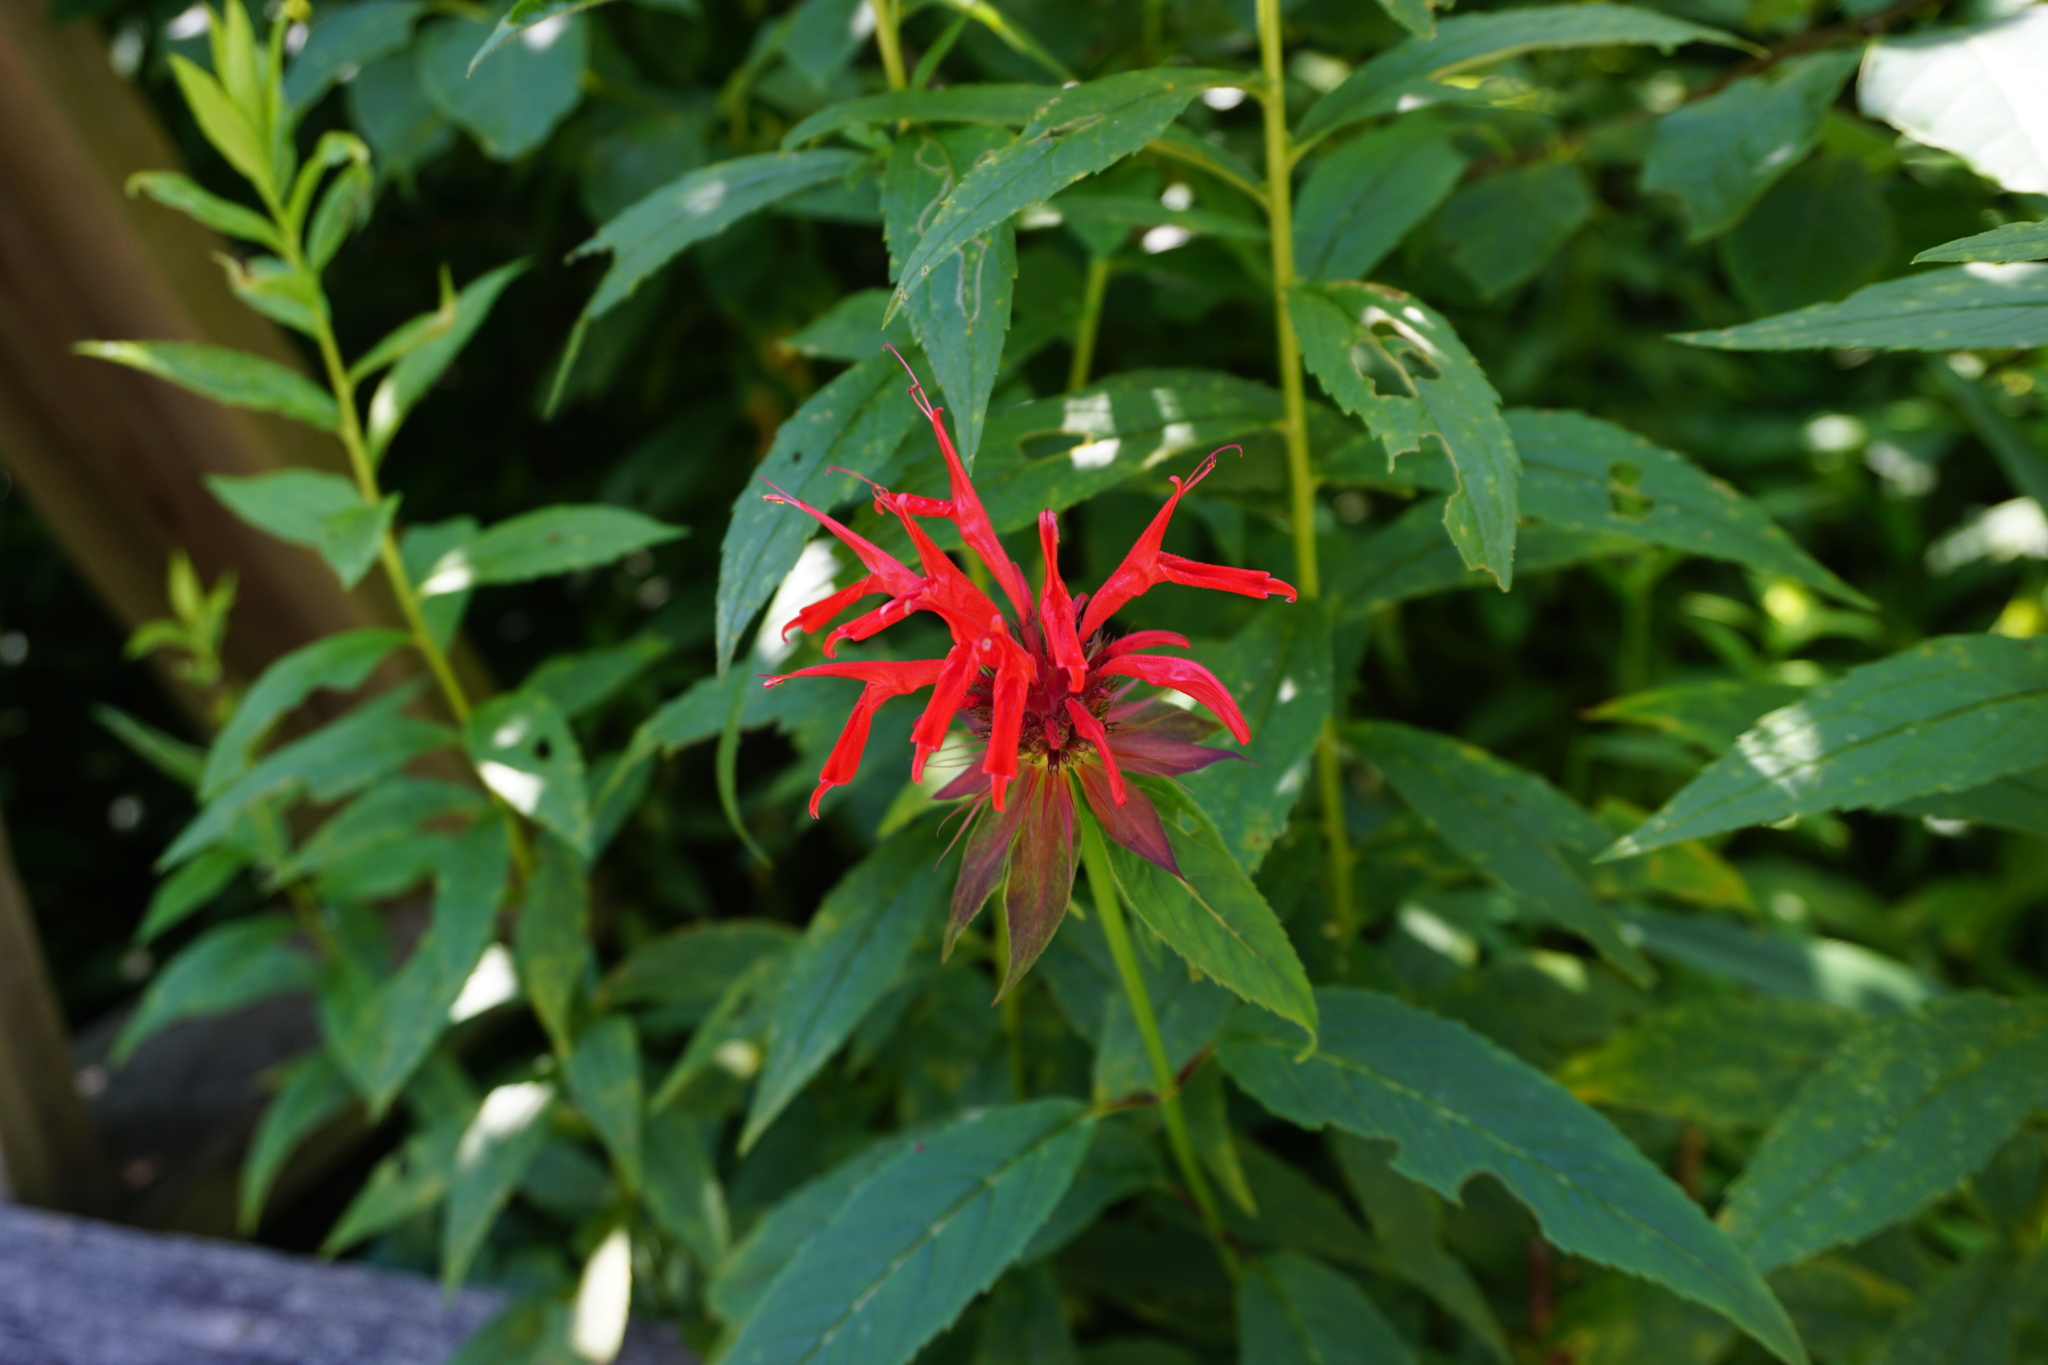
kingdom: Plantae
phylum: Tracheophyta
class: Magnoliopsida
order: Lamiales
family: Lamiaceae
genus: Monarda
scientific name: Monarda didyma
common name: Beebalm
